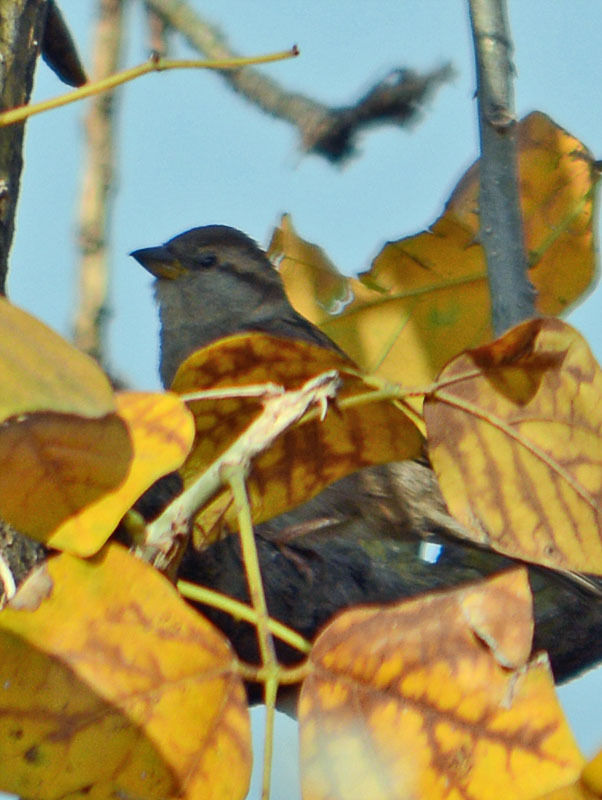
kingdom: Animalia
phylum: Chordata
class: Aves
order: Passeriformes
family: Passeridae
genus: Passer
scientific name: Passer domesticus
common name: House sparrow
